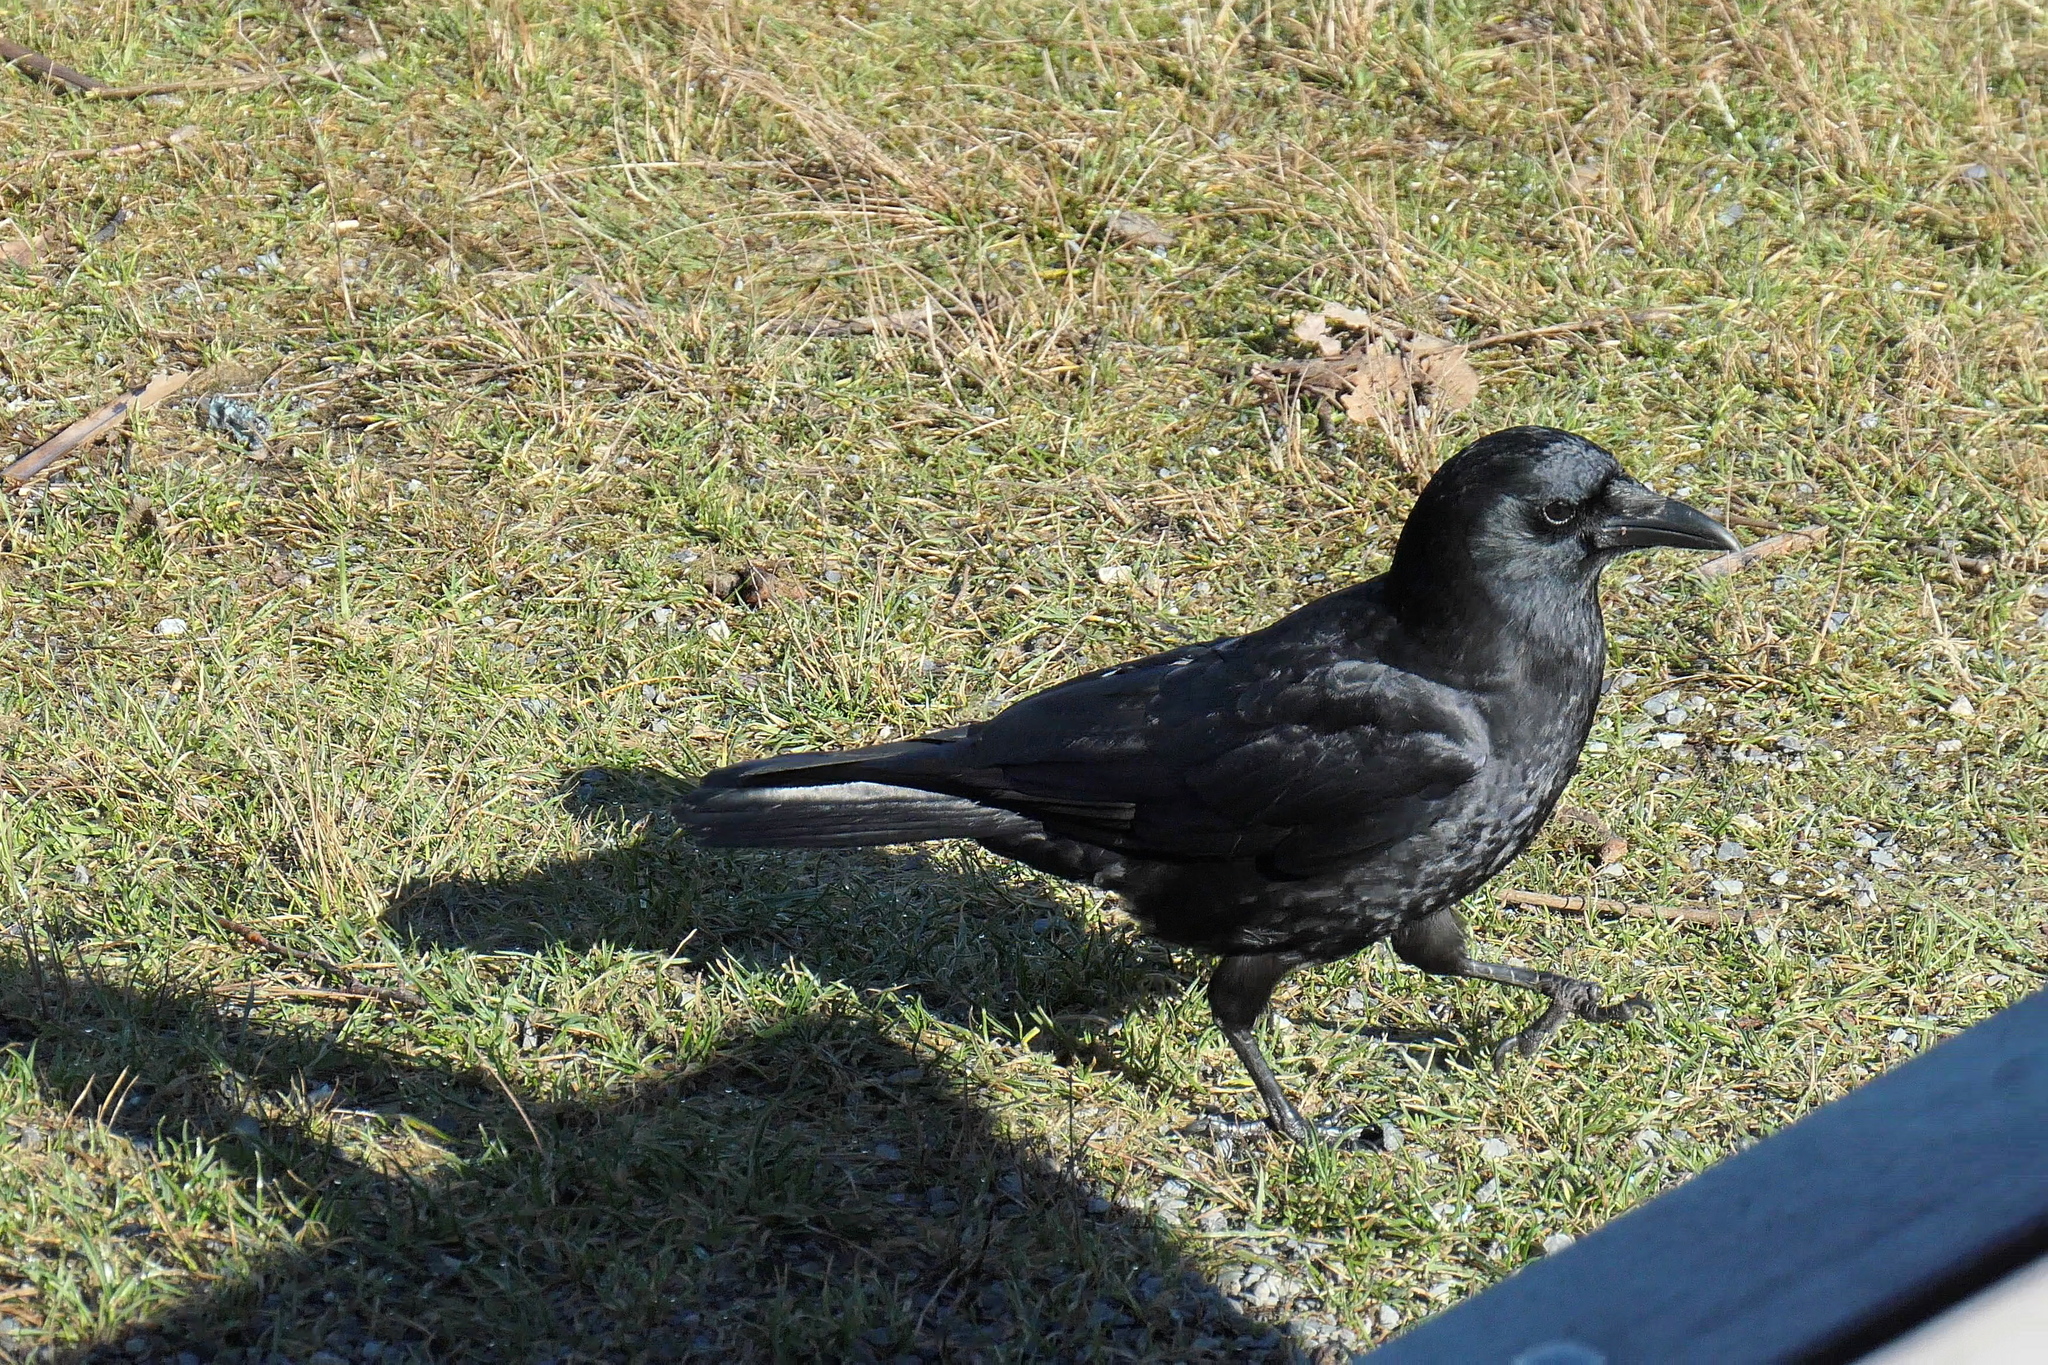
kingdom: Animalia
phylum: Chordata
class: Aves
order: Passeriformes
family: Corvidae
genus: Corvus
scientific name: Corvus brachyrhynchos
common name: American crow
